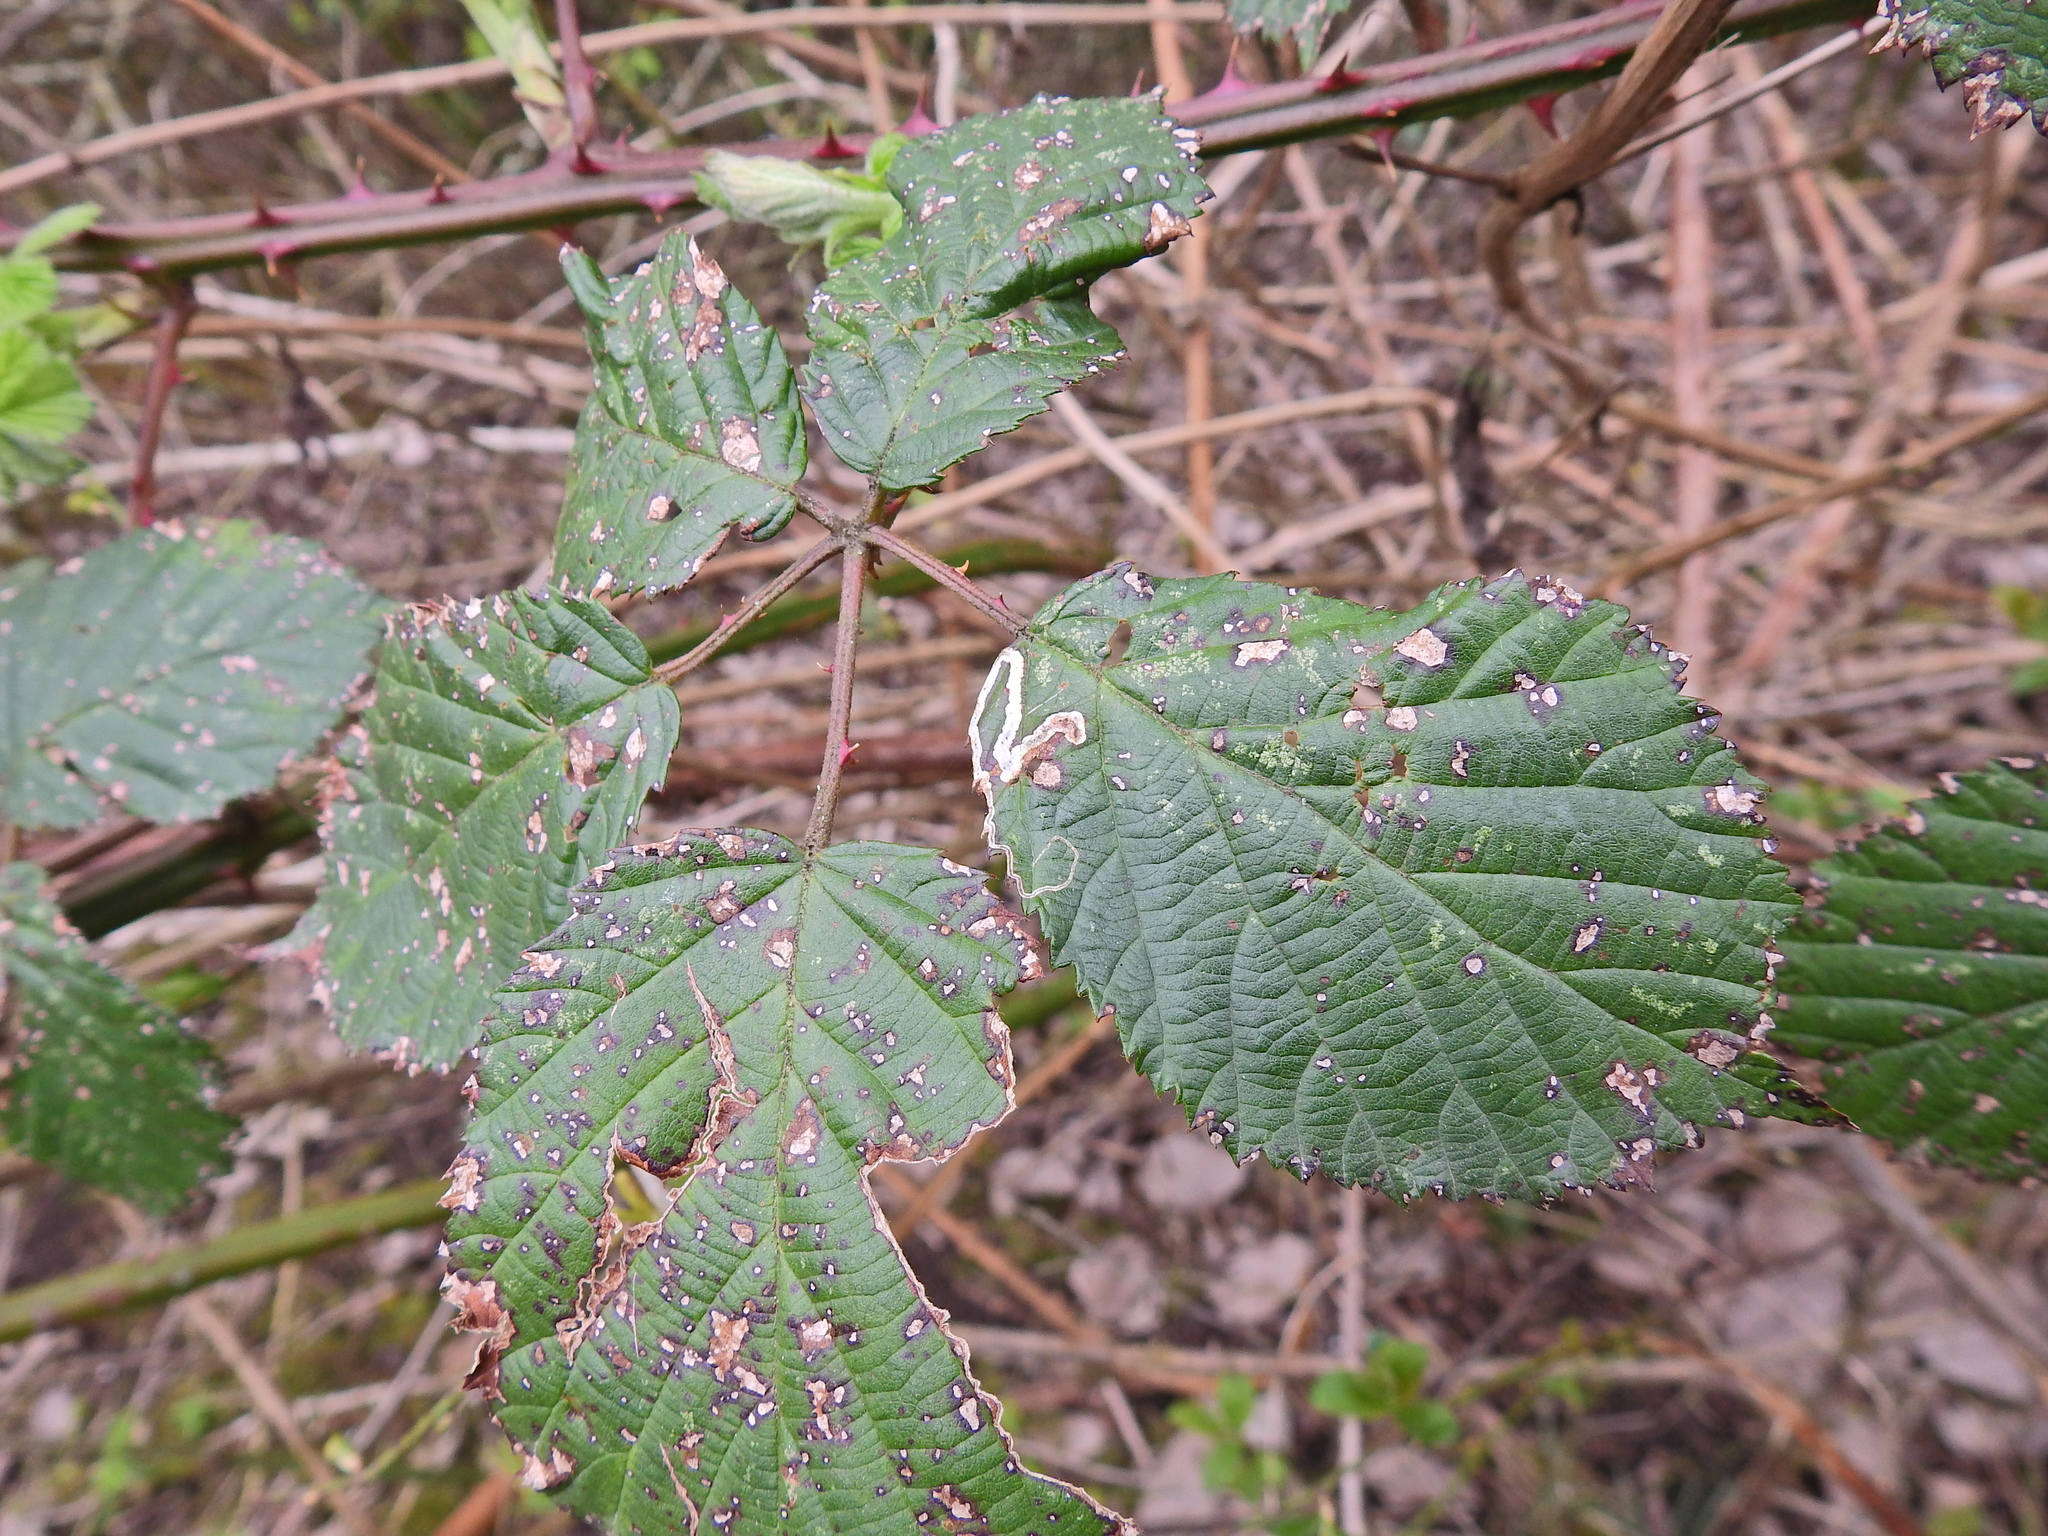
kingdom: Animalia
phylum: Arthropoda
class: Insecta
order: Lepidoptera
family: Nepticulidae
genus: Stigmella
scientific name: Stigmella aurella
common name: Golden pigmy
